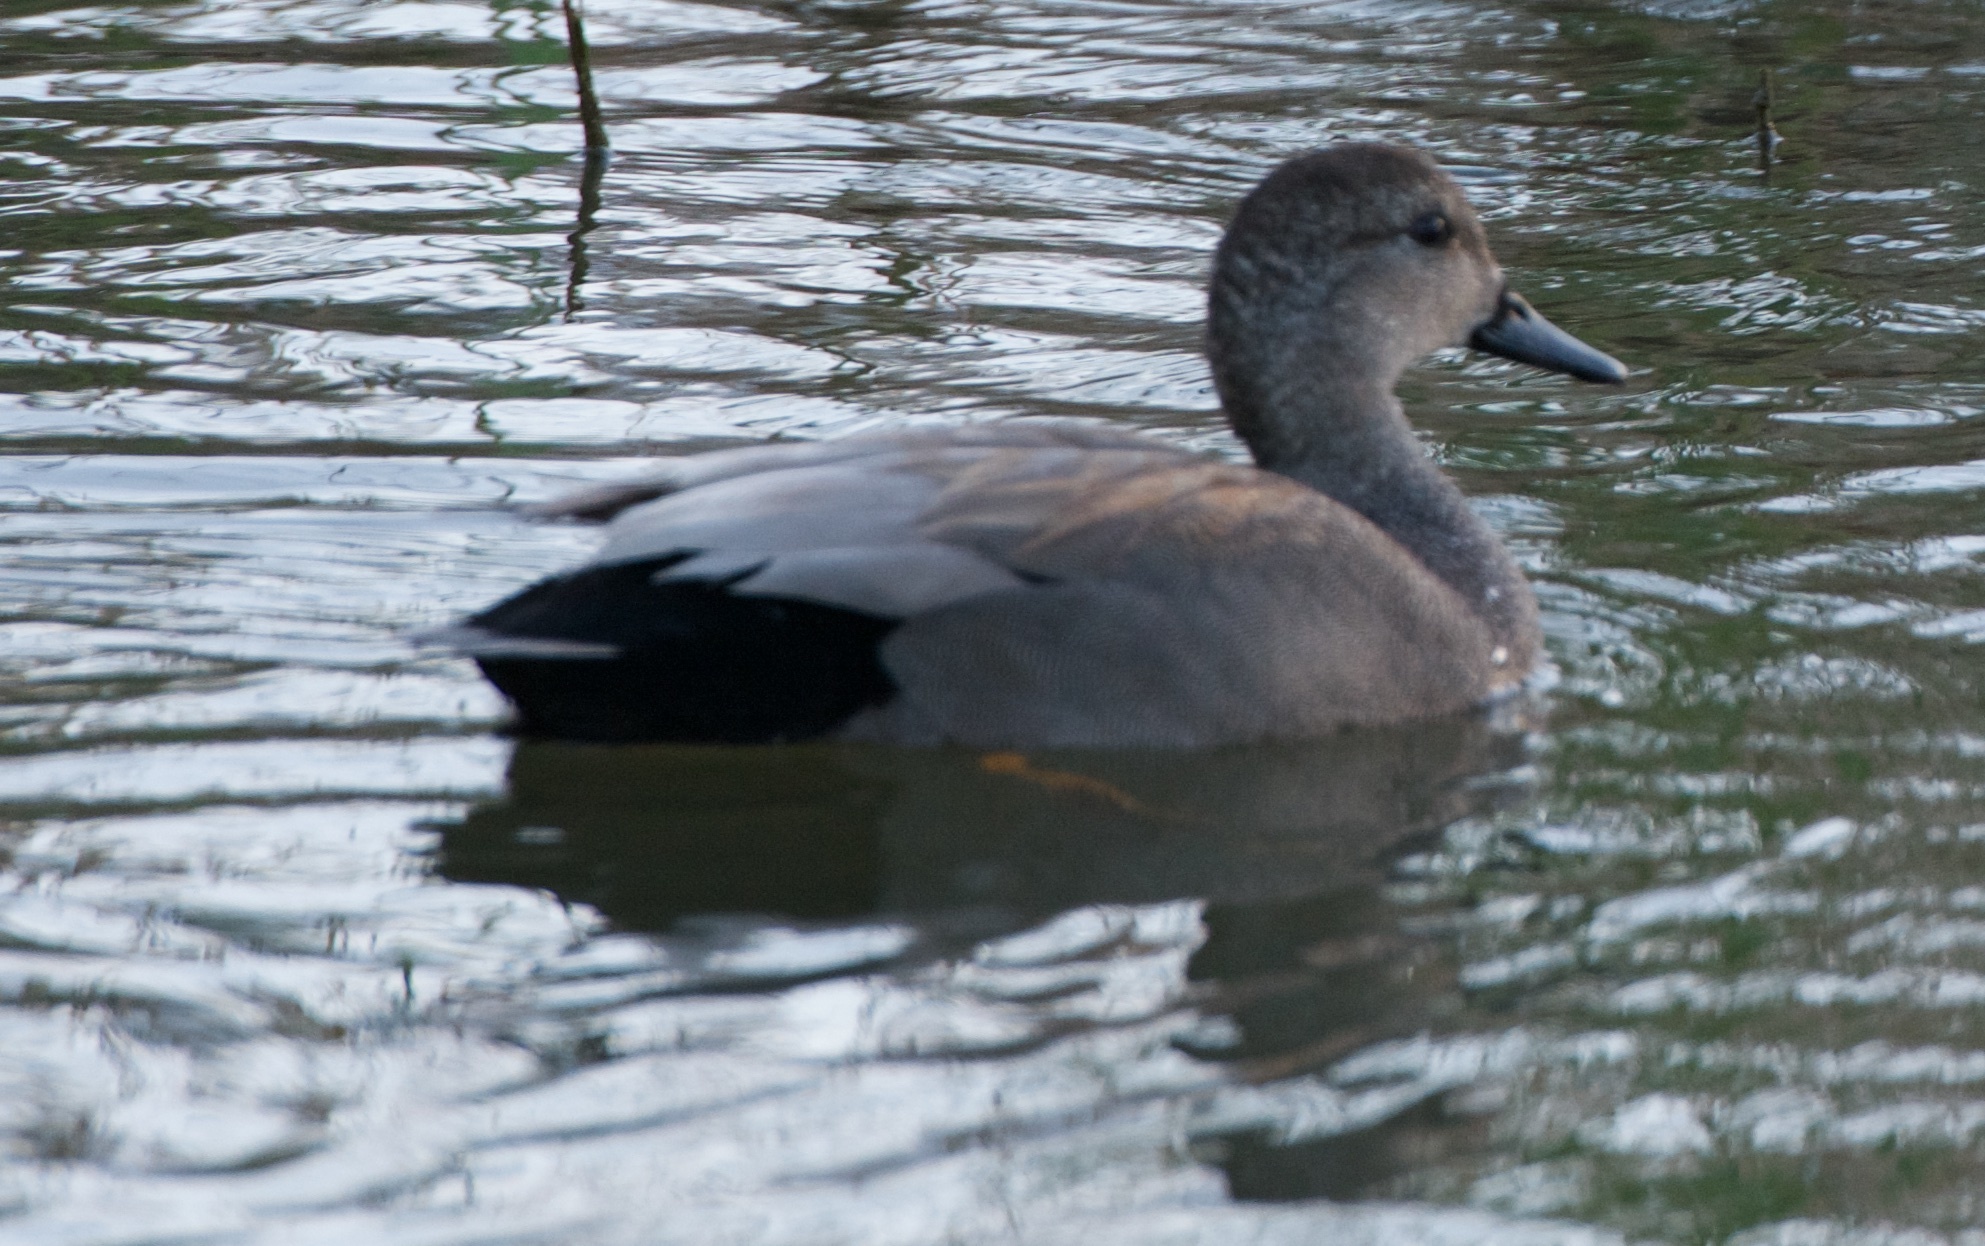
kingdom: Animalia
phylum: Chordata
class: Aves
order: Anseriformes
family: Anatidae
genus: Mareca
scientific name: Mareca strepera
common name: Gadwall
